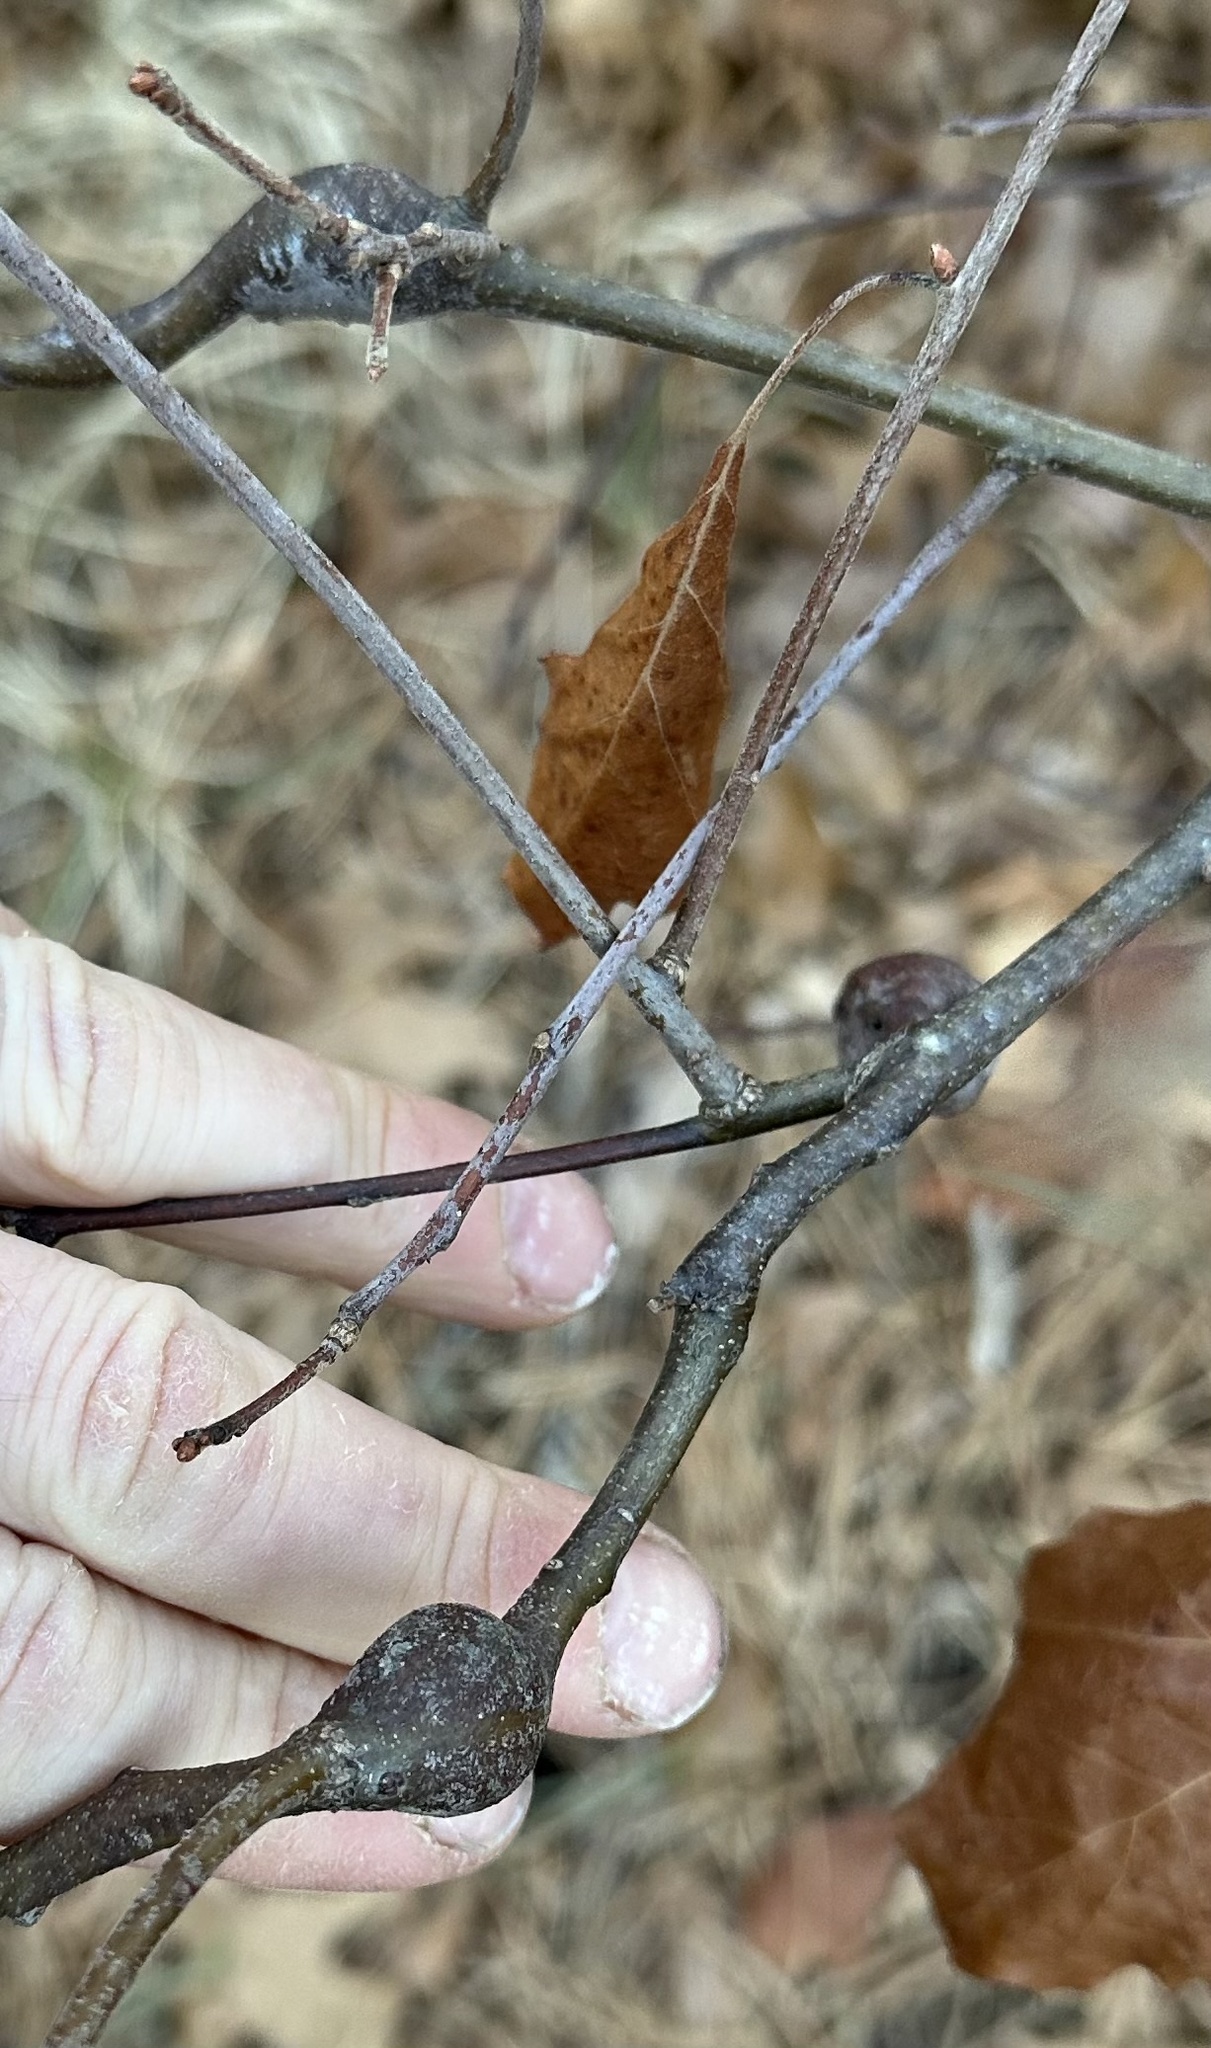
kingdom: Animalia
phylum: Arthropoda
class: Insecta
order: Hymenoptera
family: Cynipidae
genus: Zapatella
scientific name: Zapatella quercusphellos
